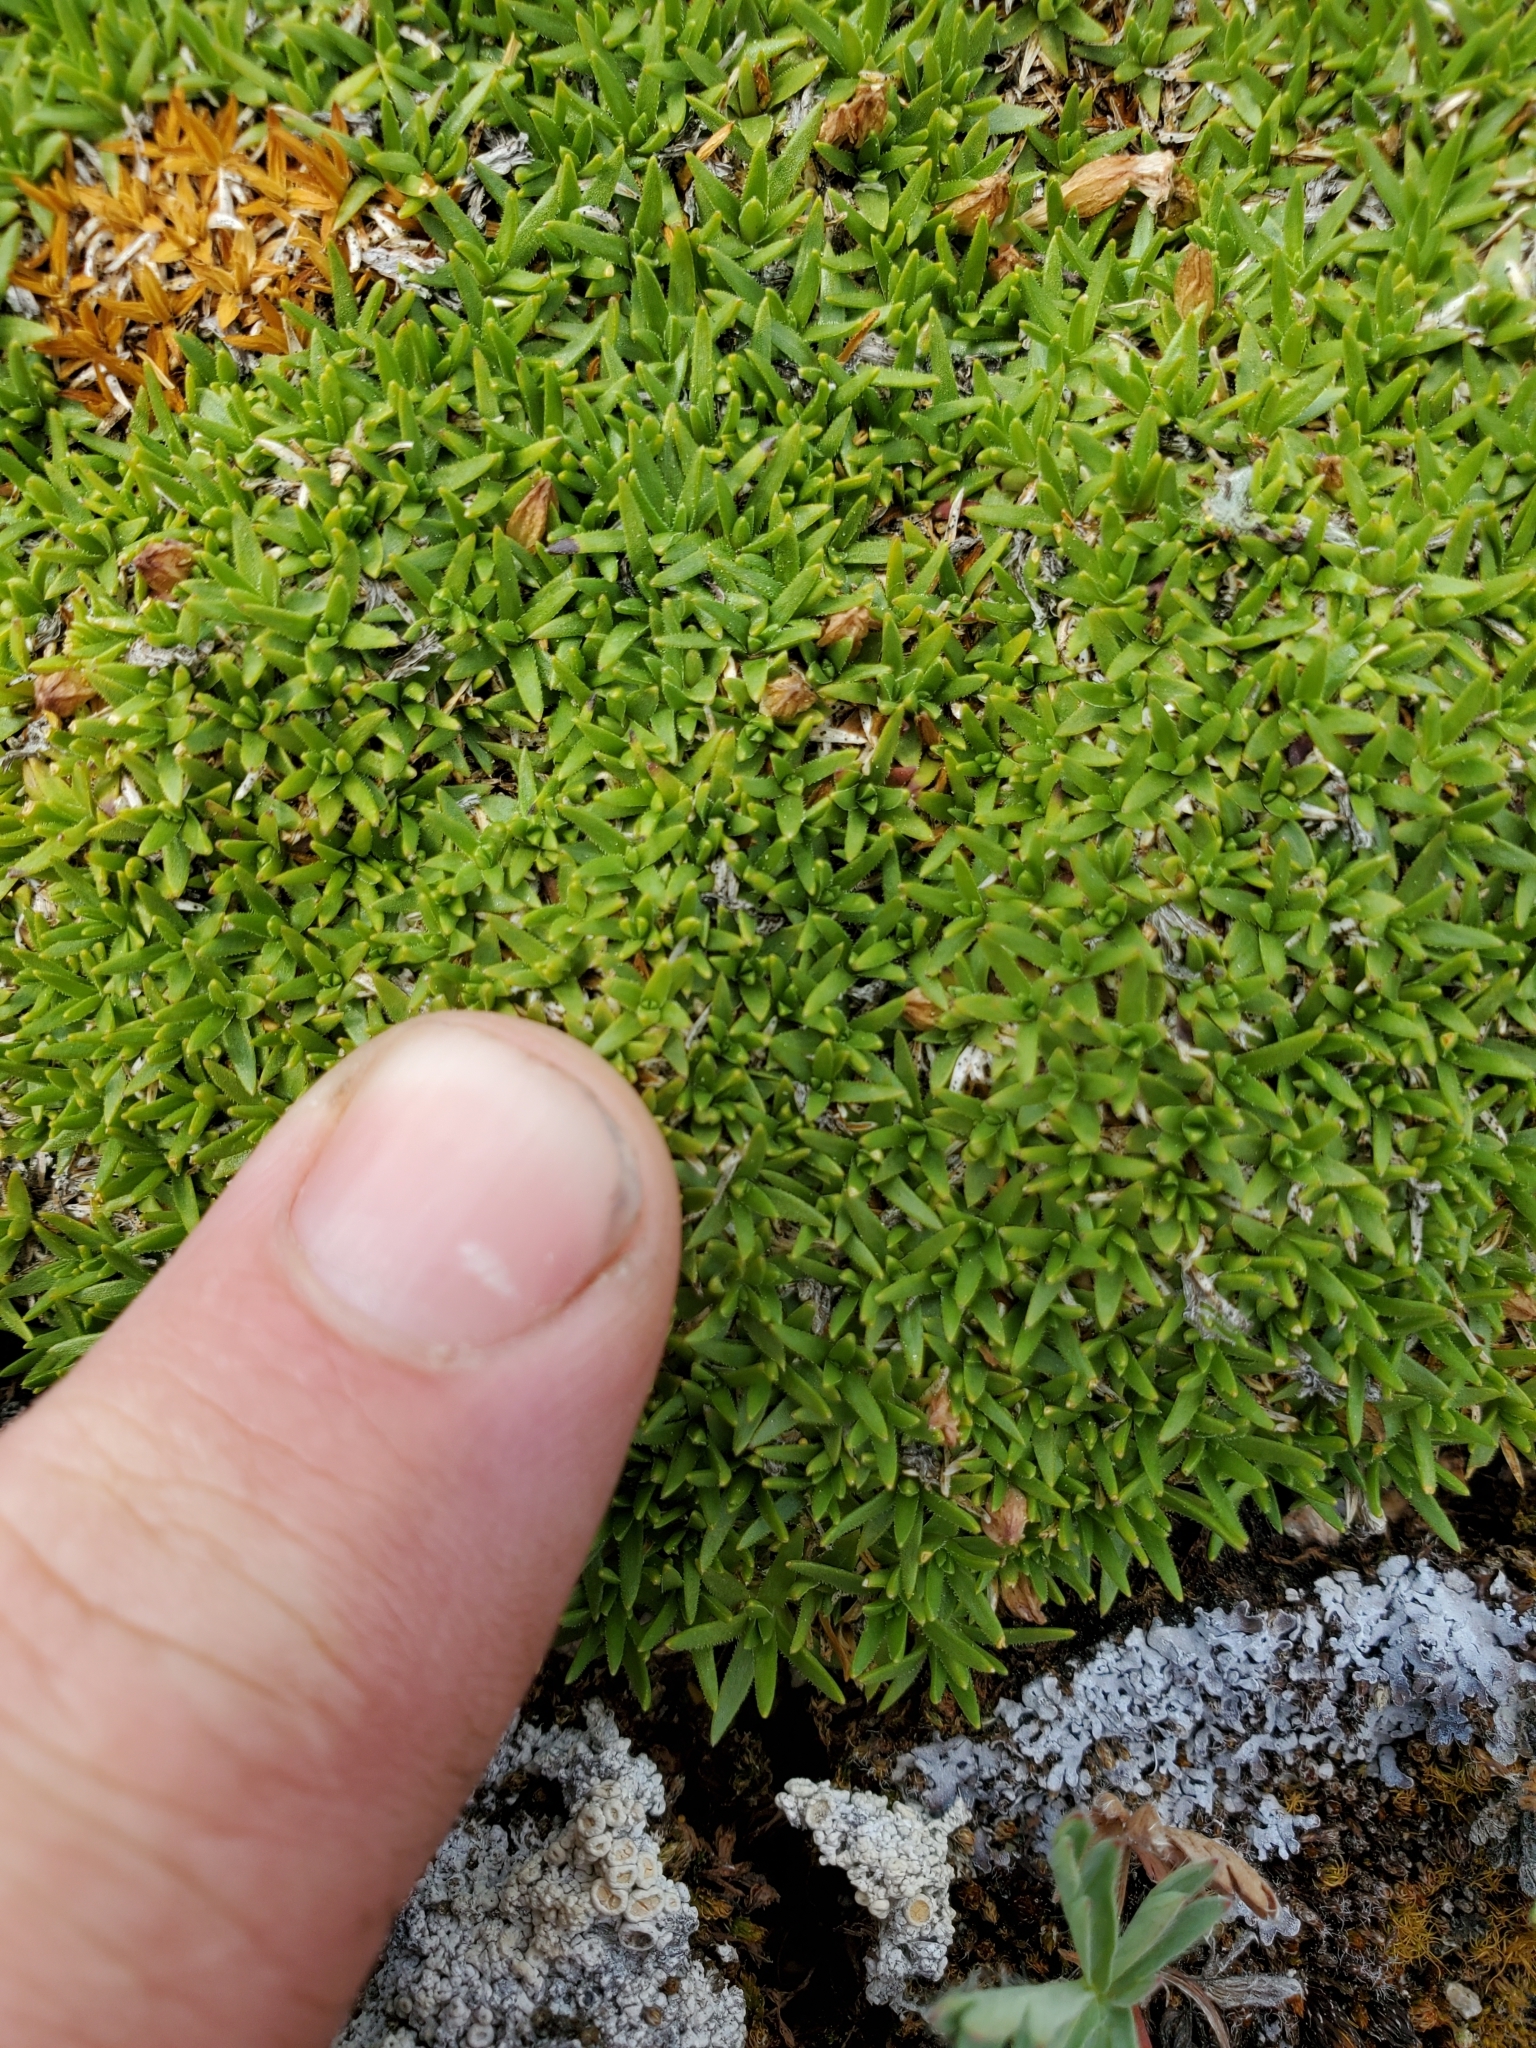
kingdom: Plantae
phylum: Tracheophyta
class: Magnoliopsida
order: Caryophyllales
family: Caryophyllaceae
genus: Silene
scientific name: Silene acaulis
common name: Moss campion
